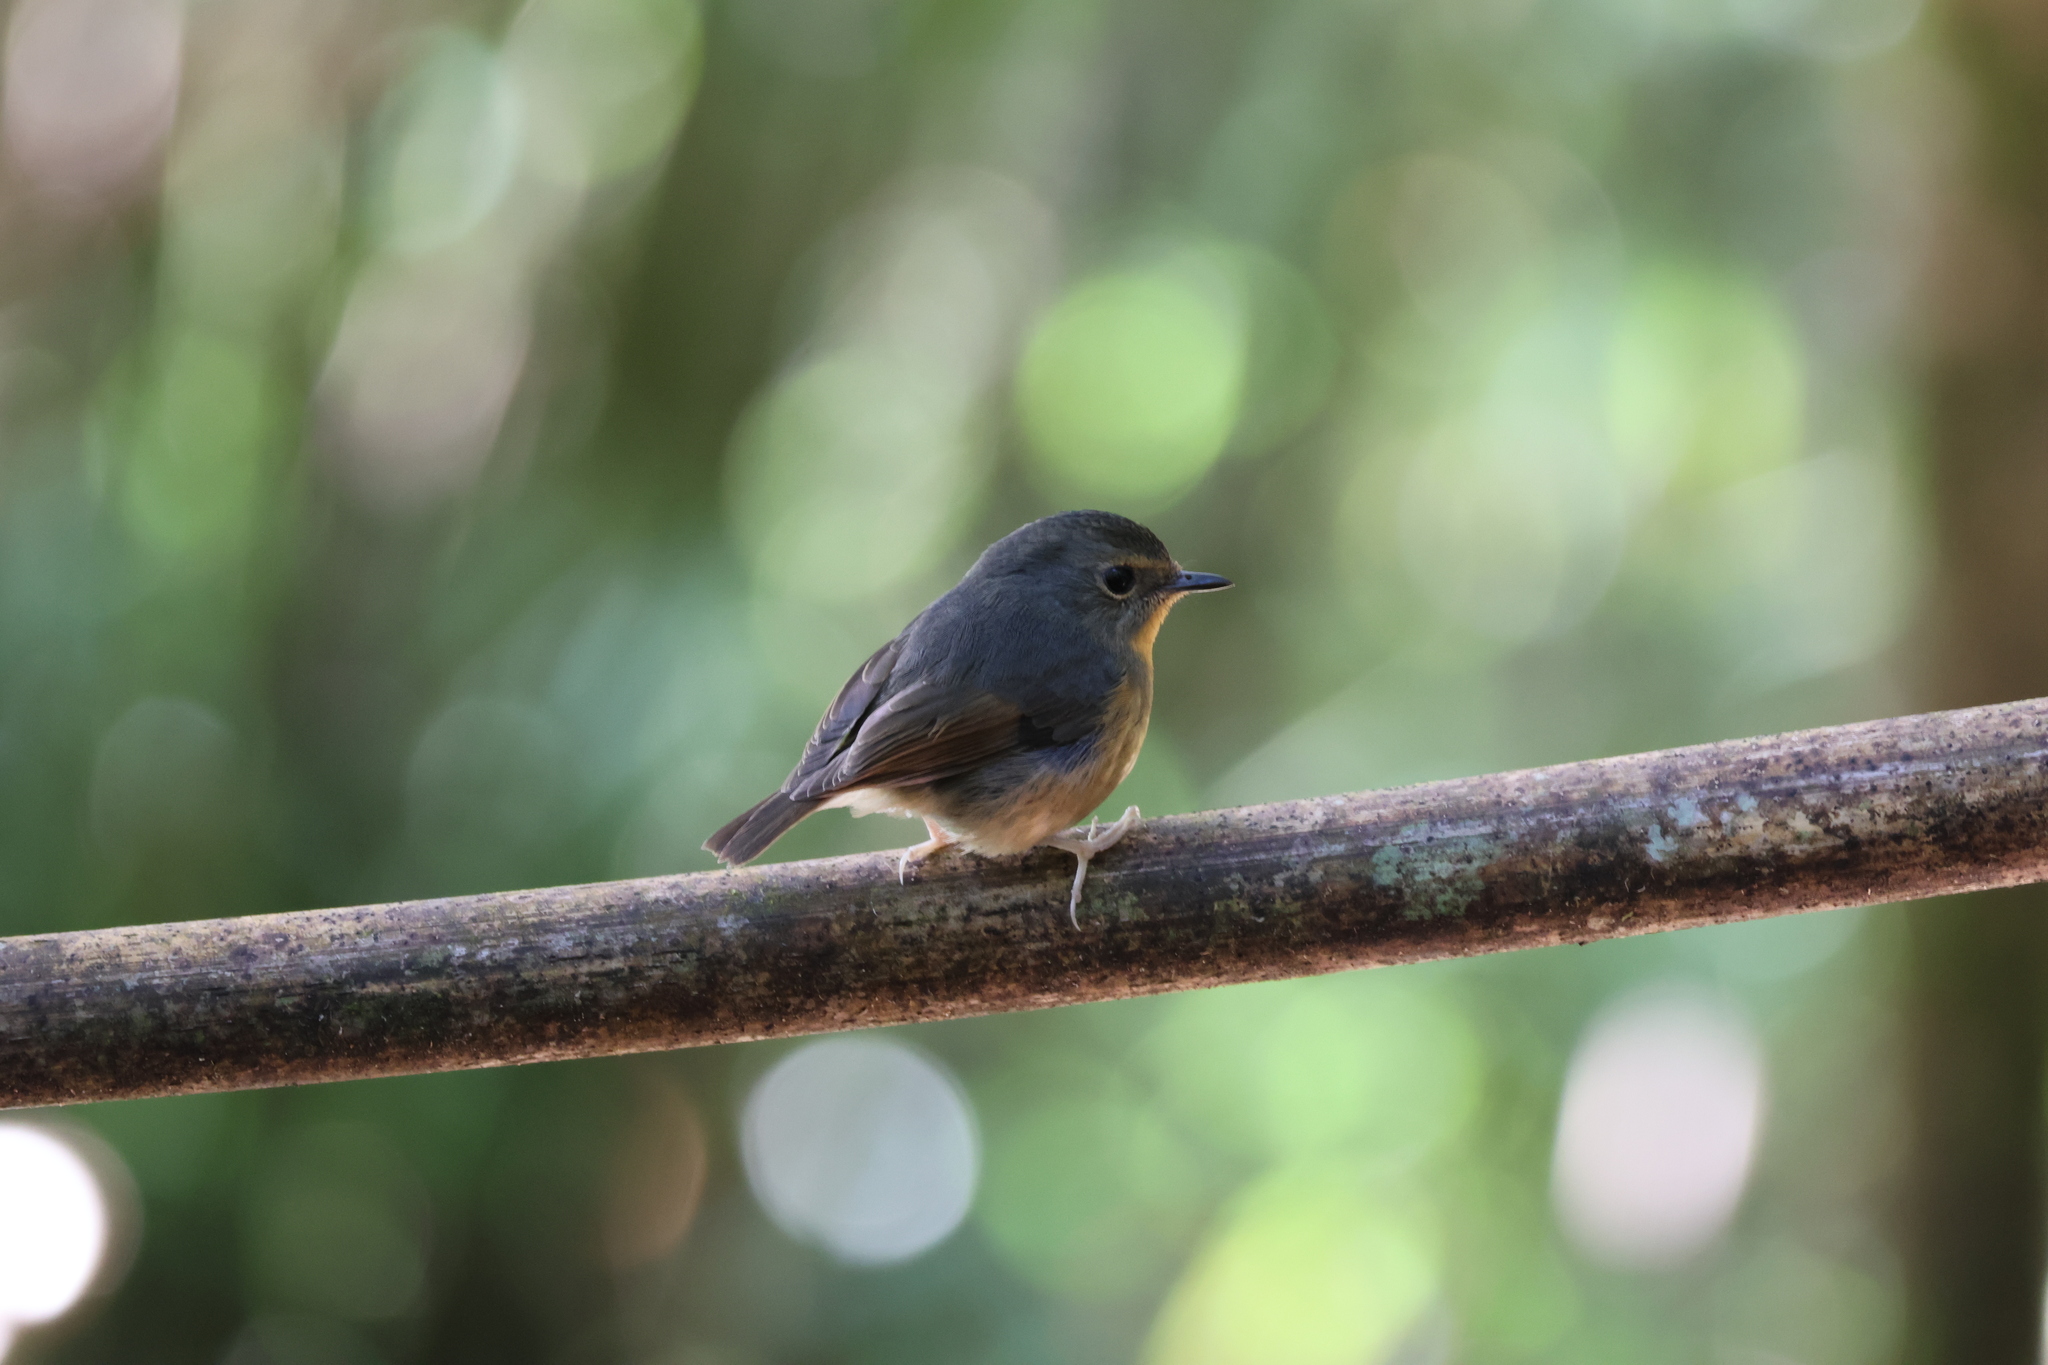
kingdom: Animalia
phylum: Chordata
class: Aves
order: Passeriformes
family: Muscicapidae
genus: Ficedula
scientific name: Ficedula hyperythra
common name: Snowy-browed flycatcher
